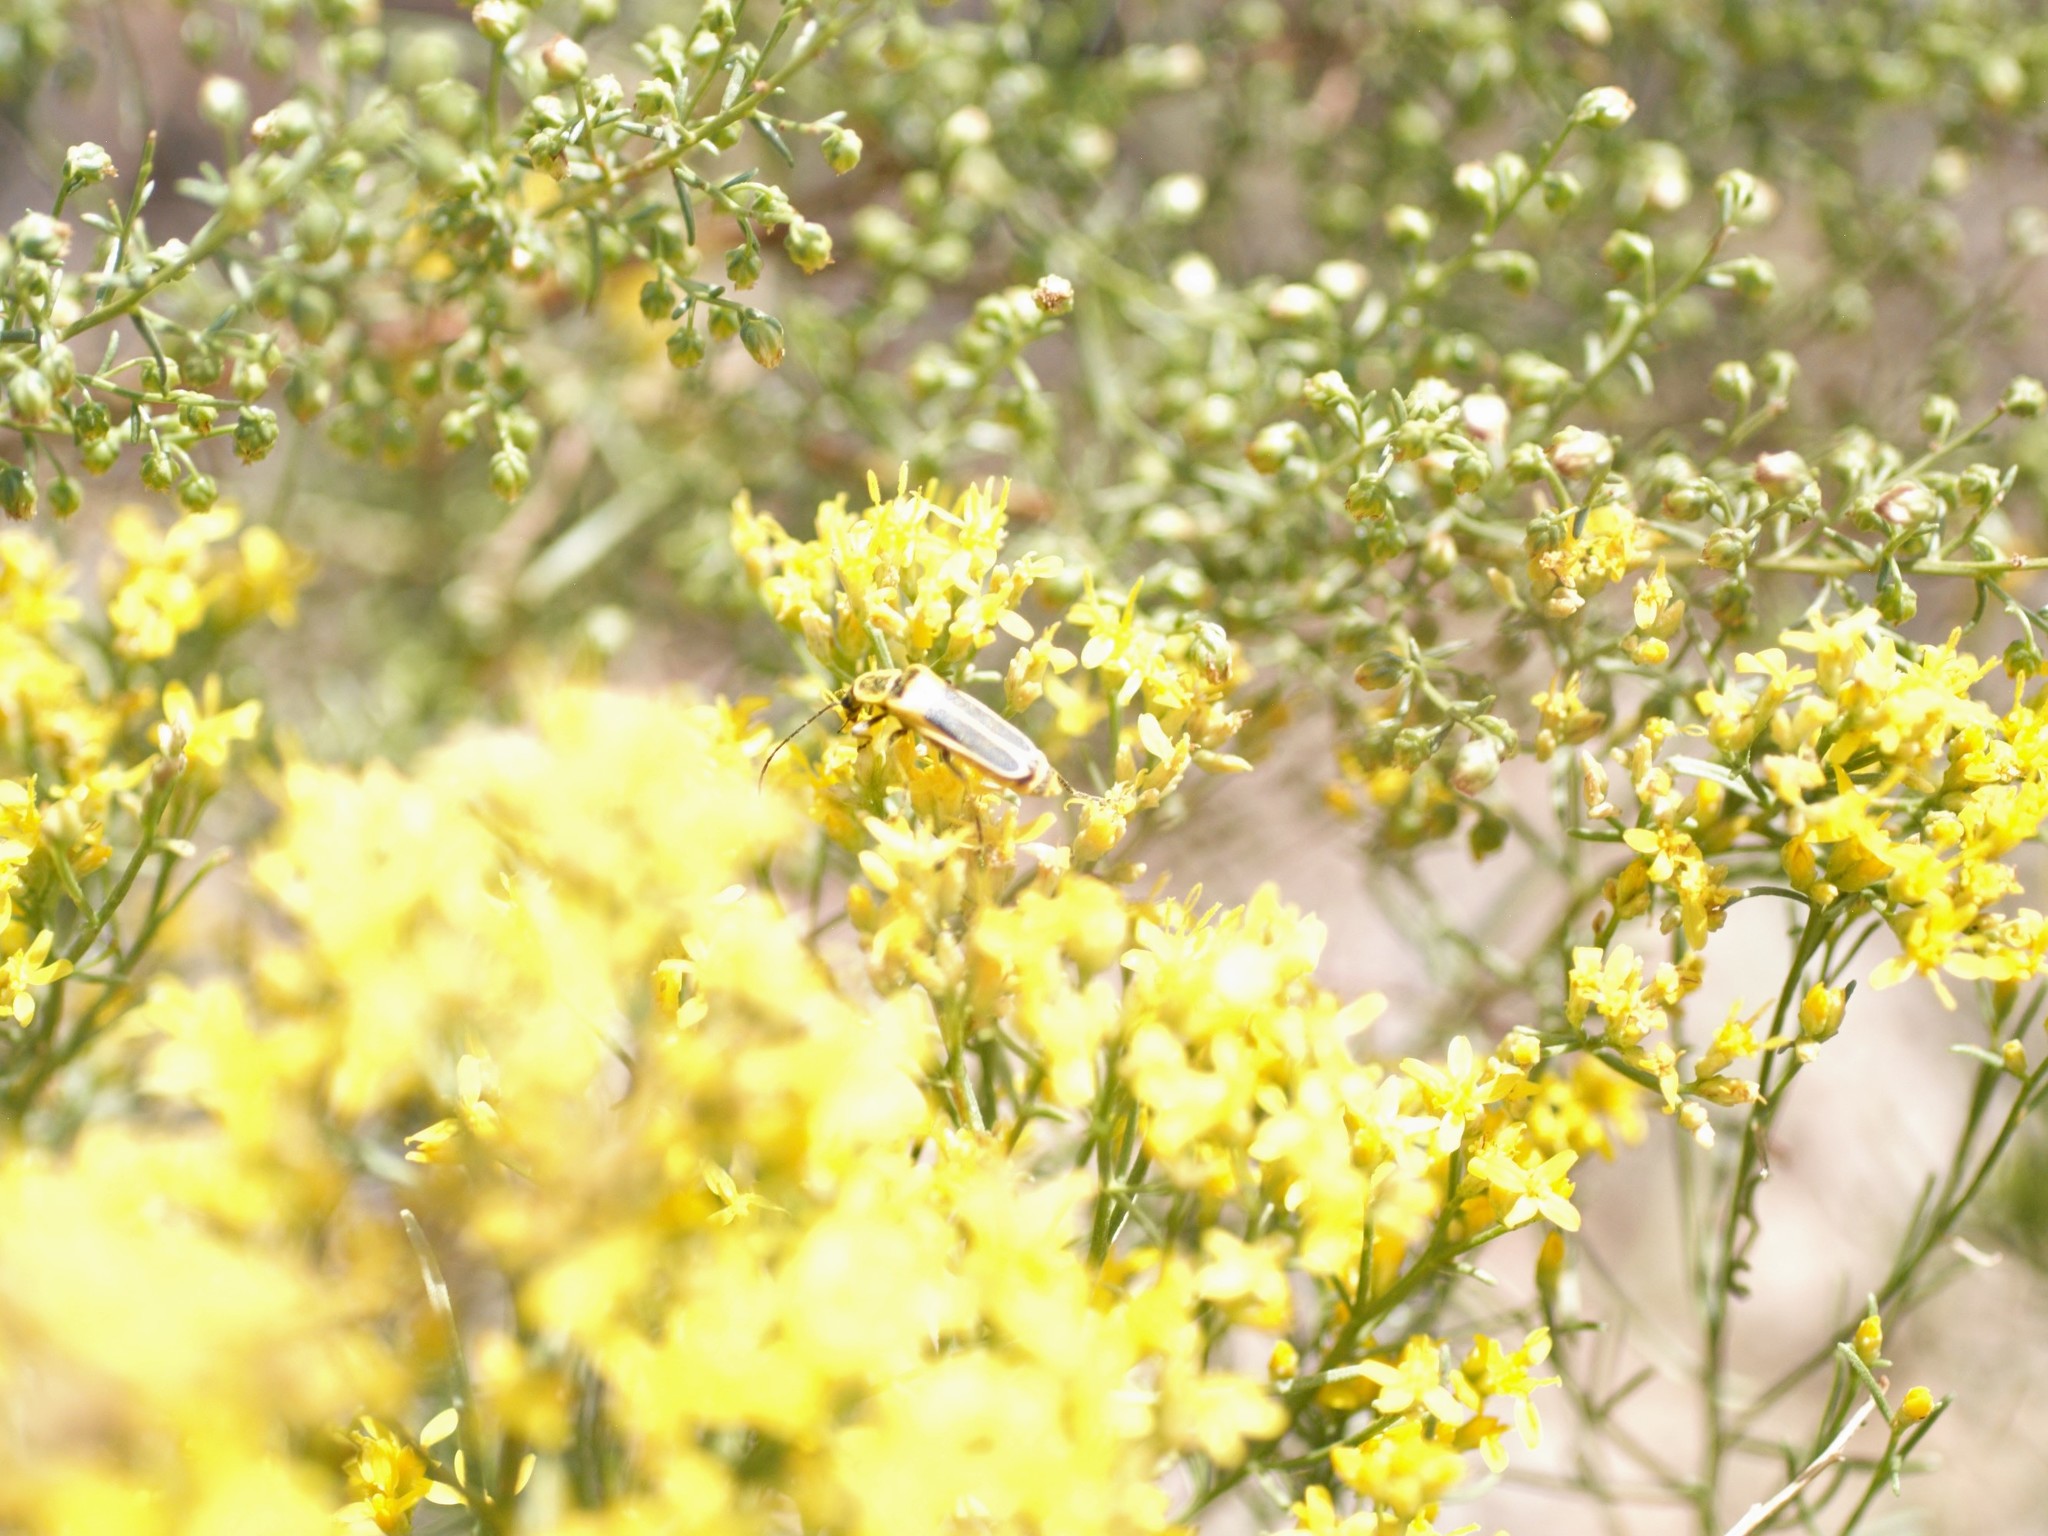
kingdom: Animalia
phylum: Arthropoda
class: Insecta
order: Coleoptera
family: Cantharidae
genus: Chauliognathus
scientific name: Chauliognathus lewisi
